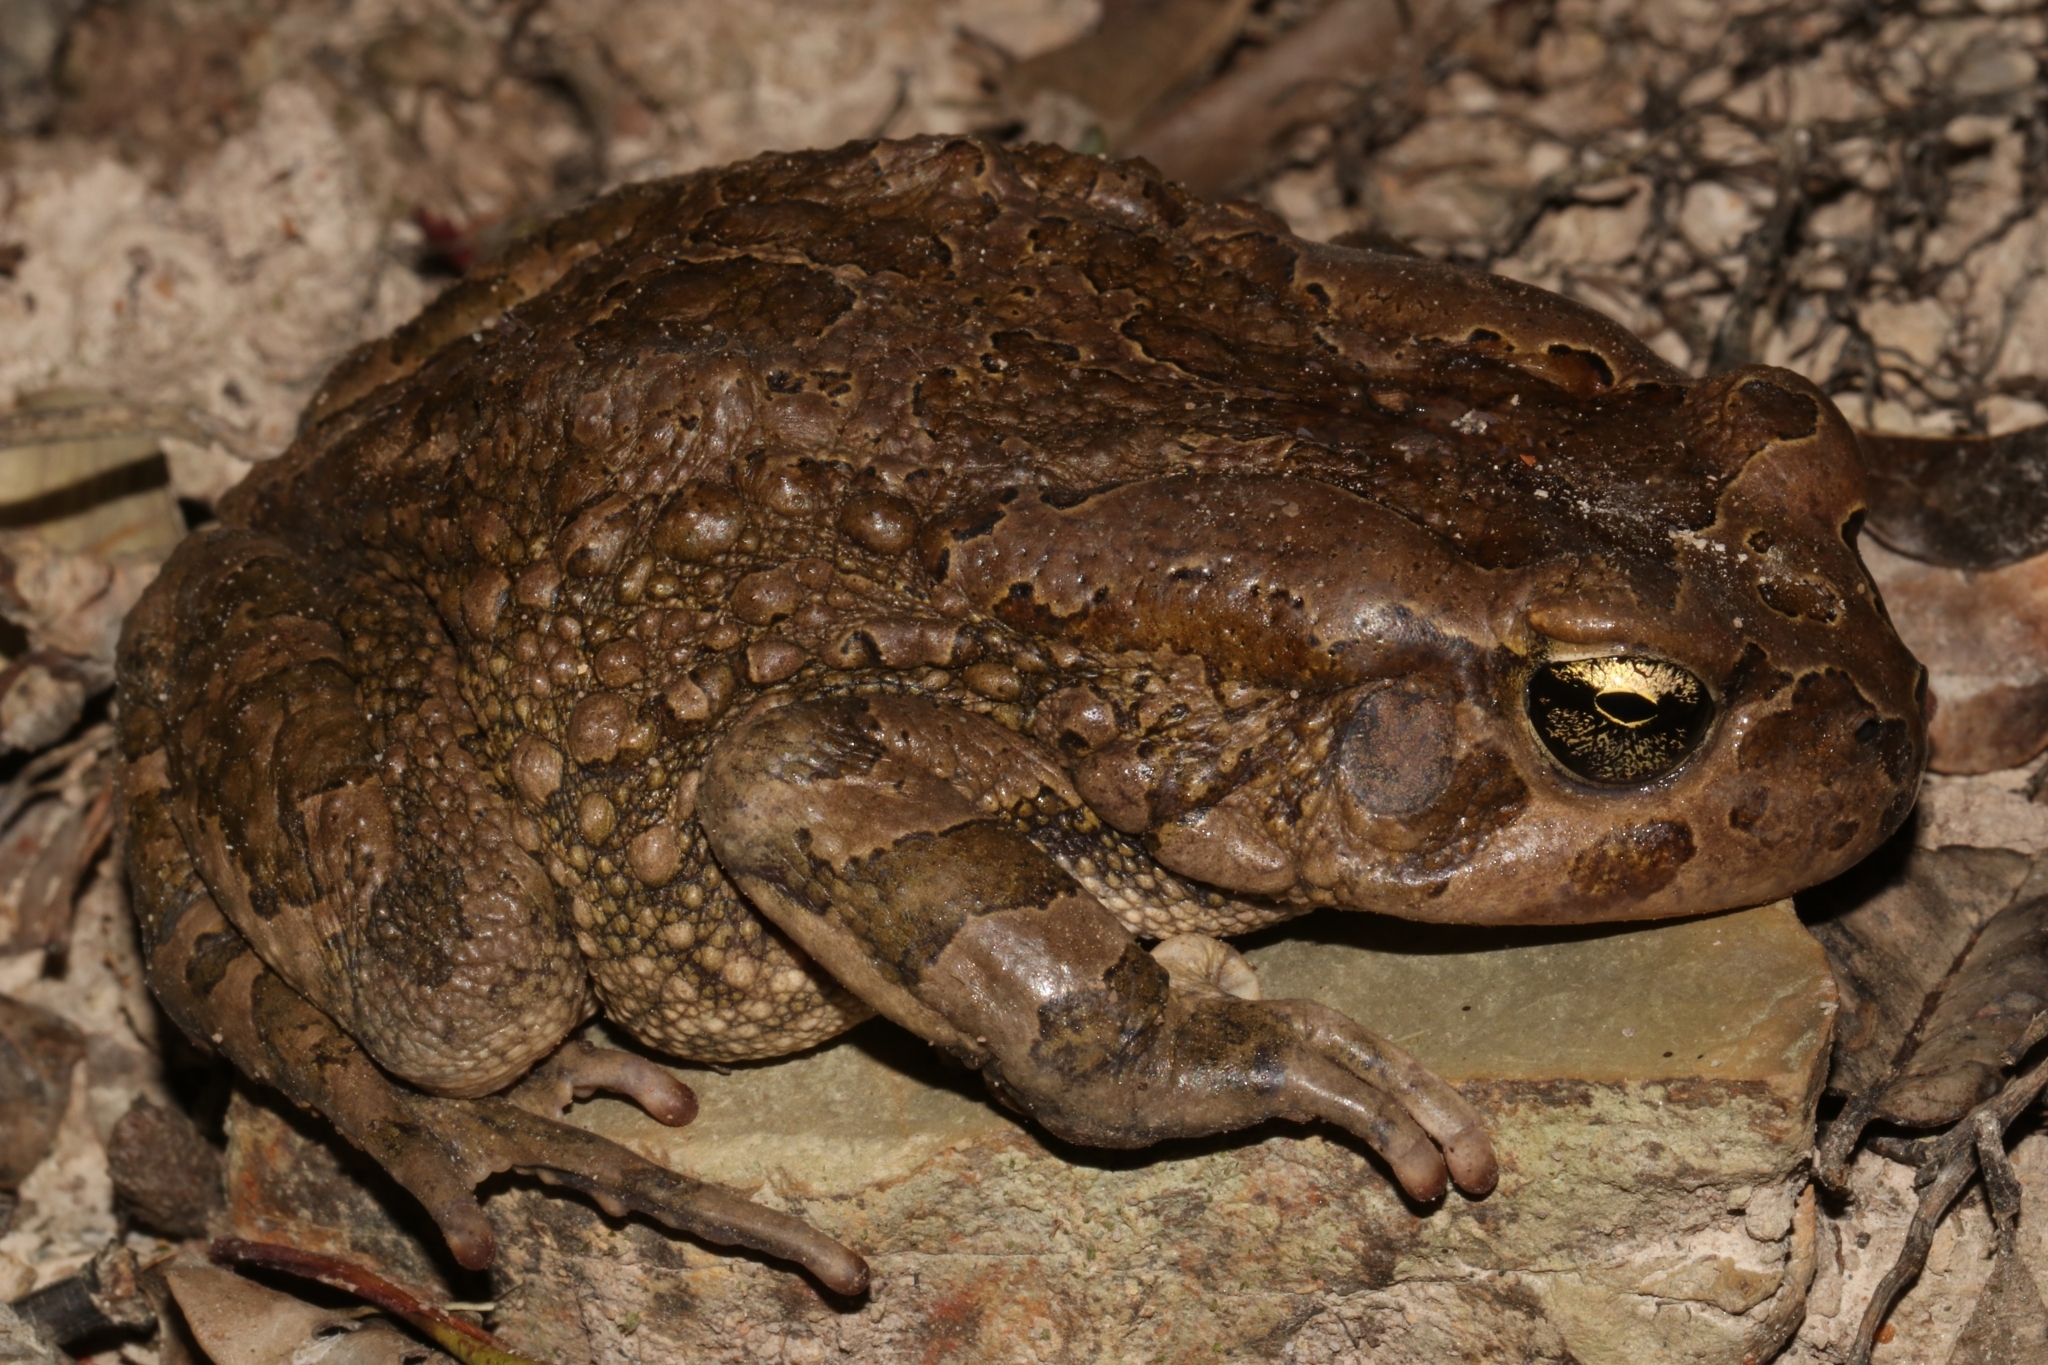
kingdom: Animalia
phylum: Chordata
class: Amphibia
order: Anura
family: Bufonidae
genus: Sclerophrys
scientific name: Sclerophrys capensis
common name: Ranger’s toad
